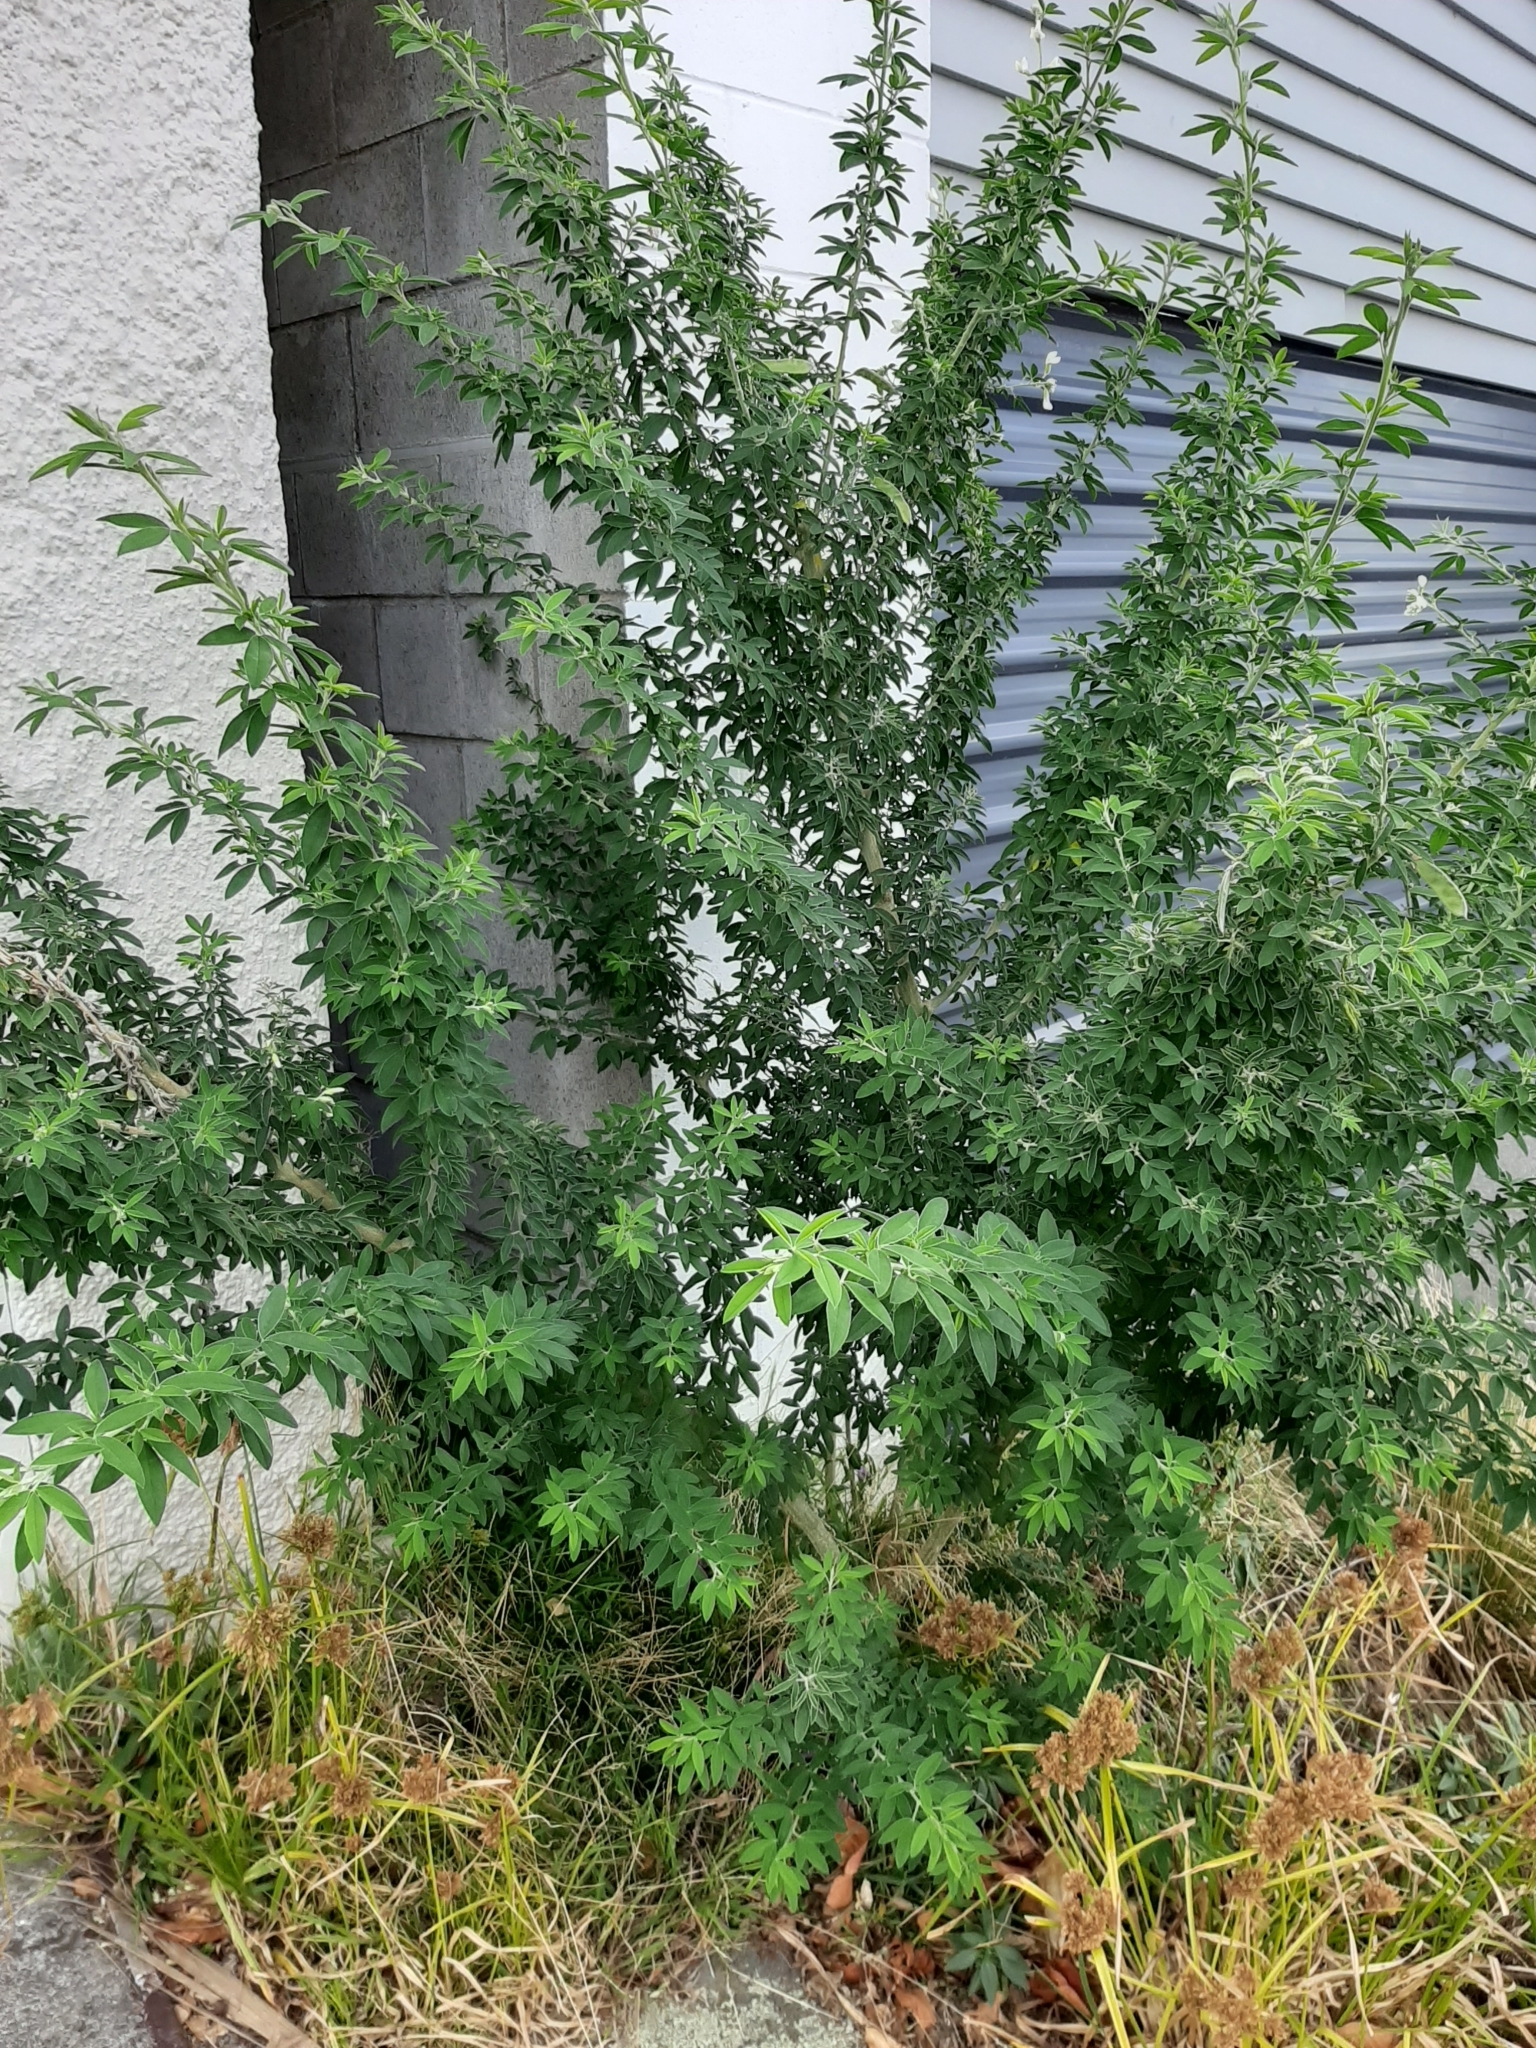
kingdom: Plantae
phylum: Tracheophyta
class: Magnoliopsida
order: Fabales
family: Fabaceae
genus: Chamaecytisus
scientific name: Chamaecytisus prolifer
